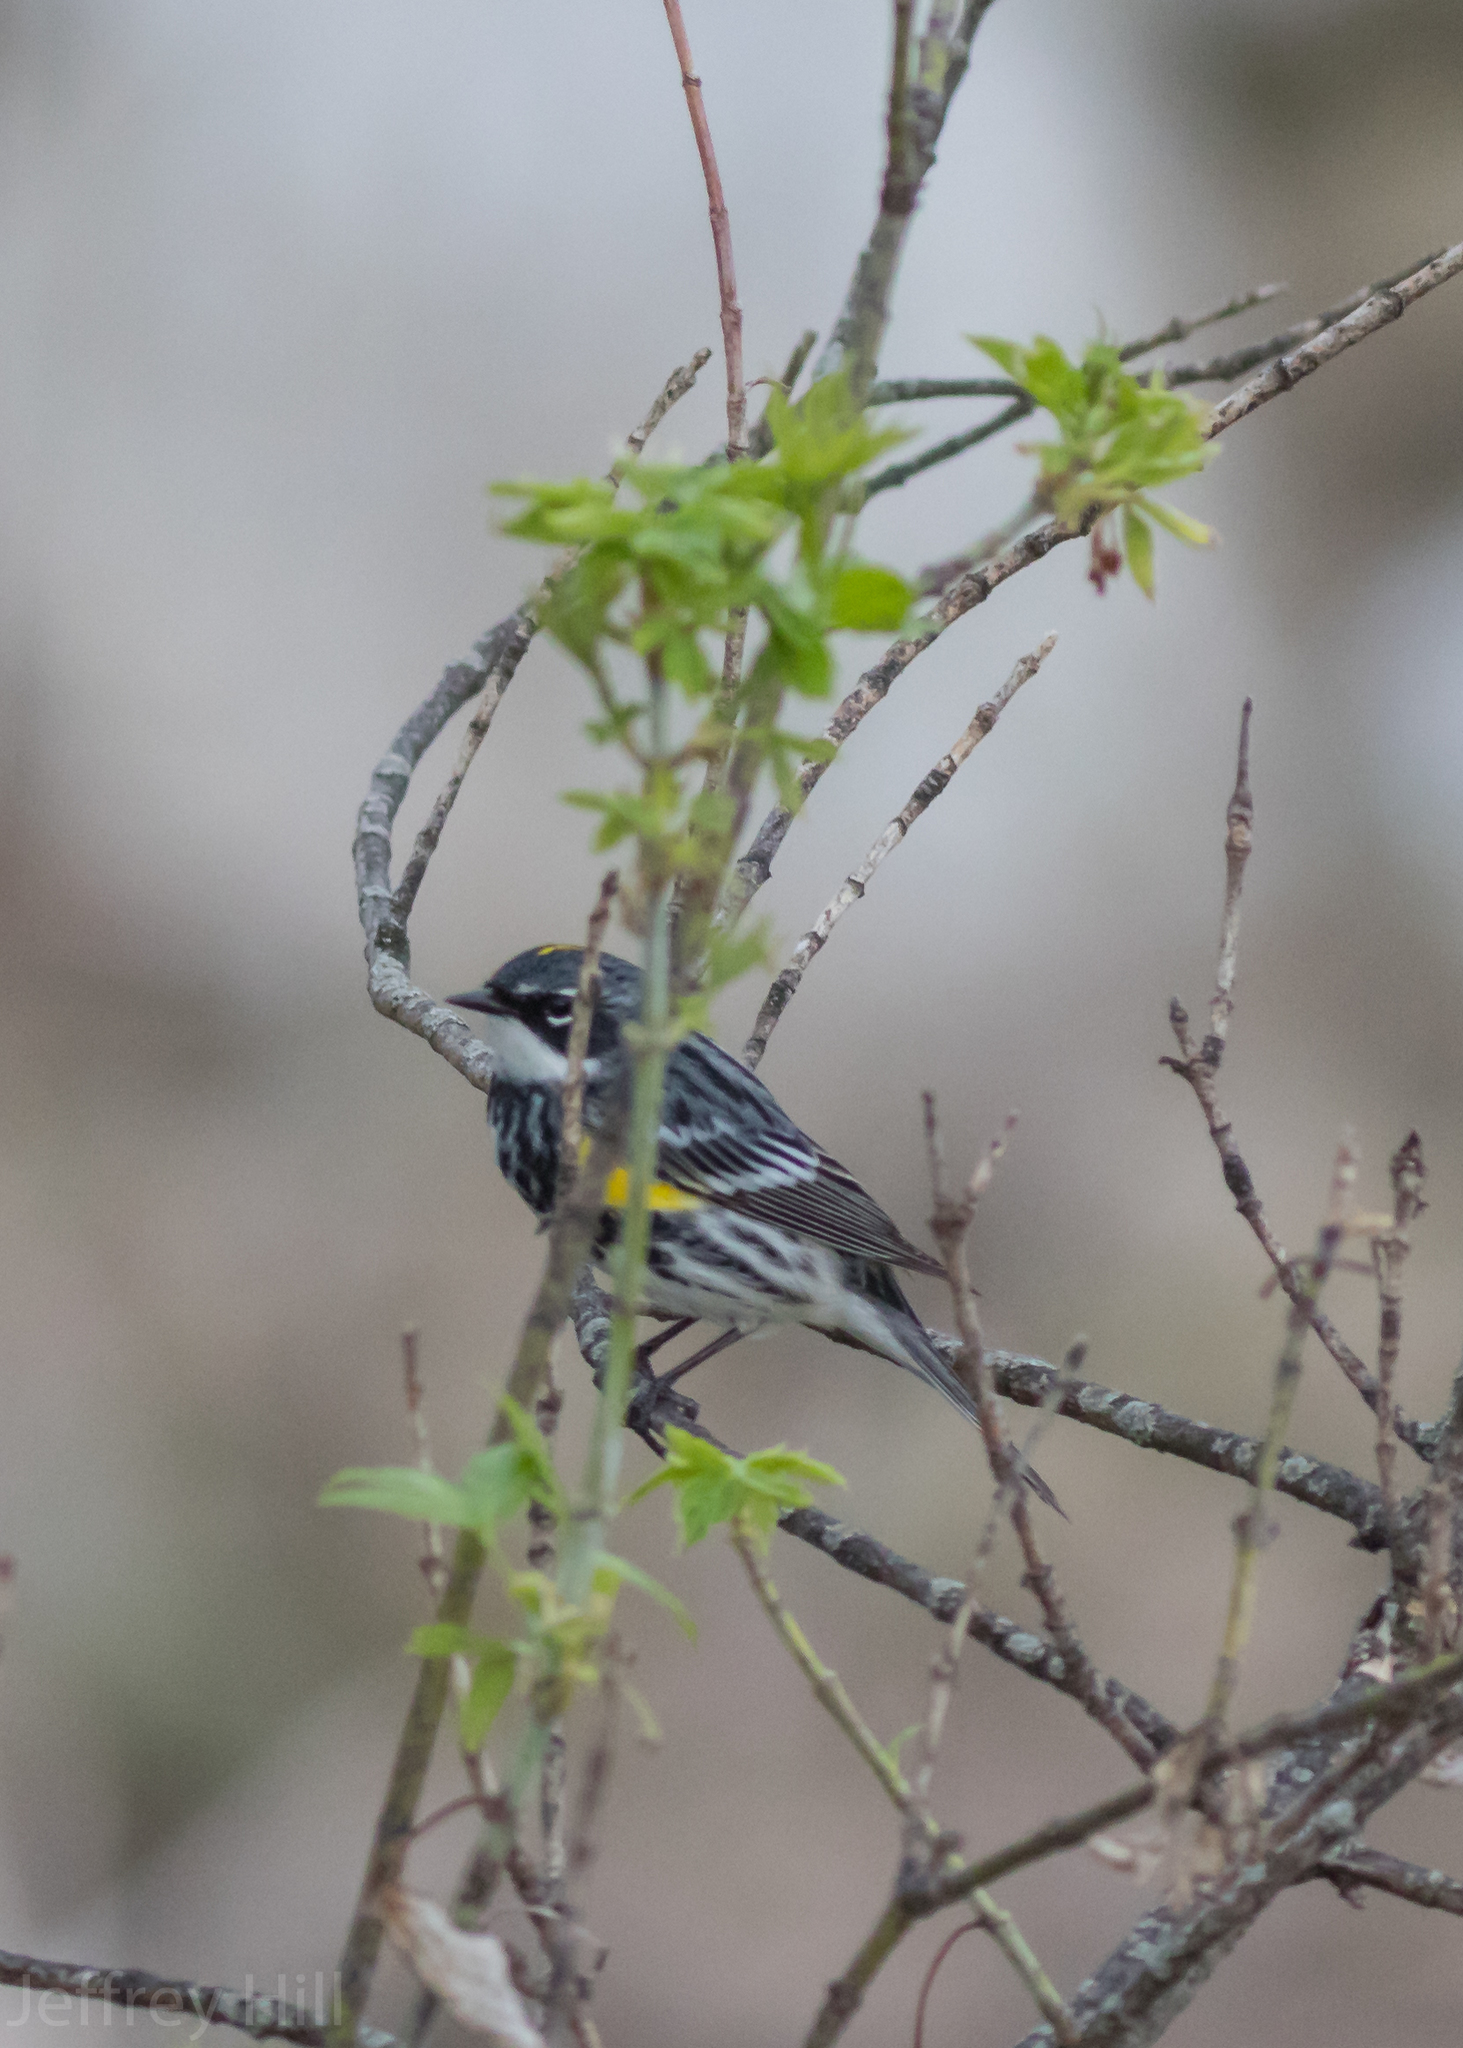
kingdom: Animalia
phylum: Chordata
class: Aves
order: Passeriformes
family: Parulidae
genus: Setophaga
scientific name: Setophaga coronata
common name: Myrtle warbler
